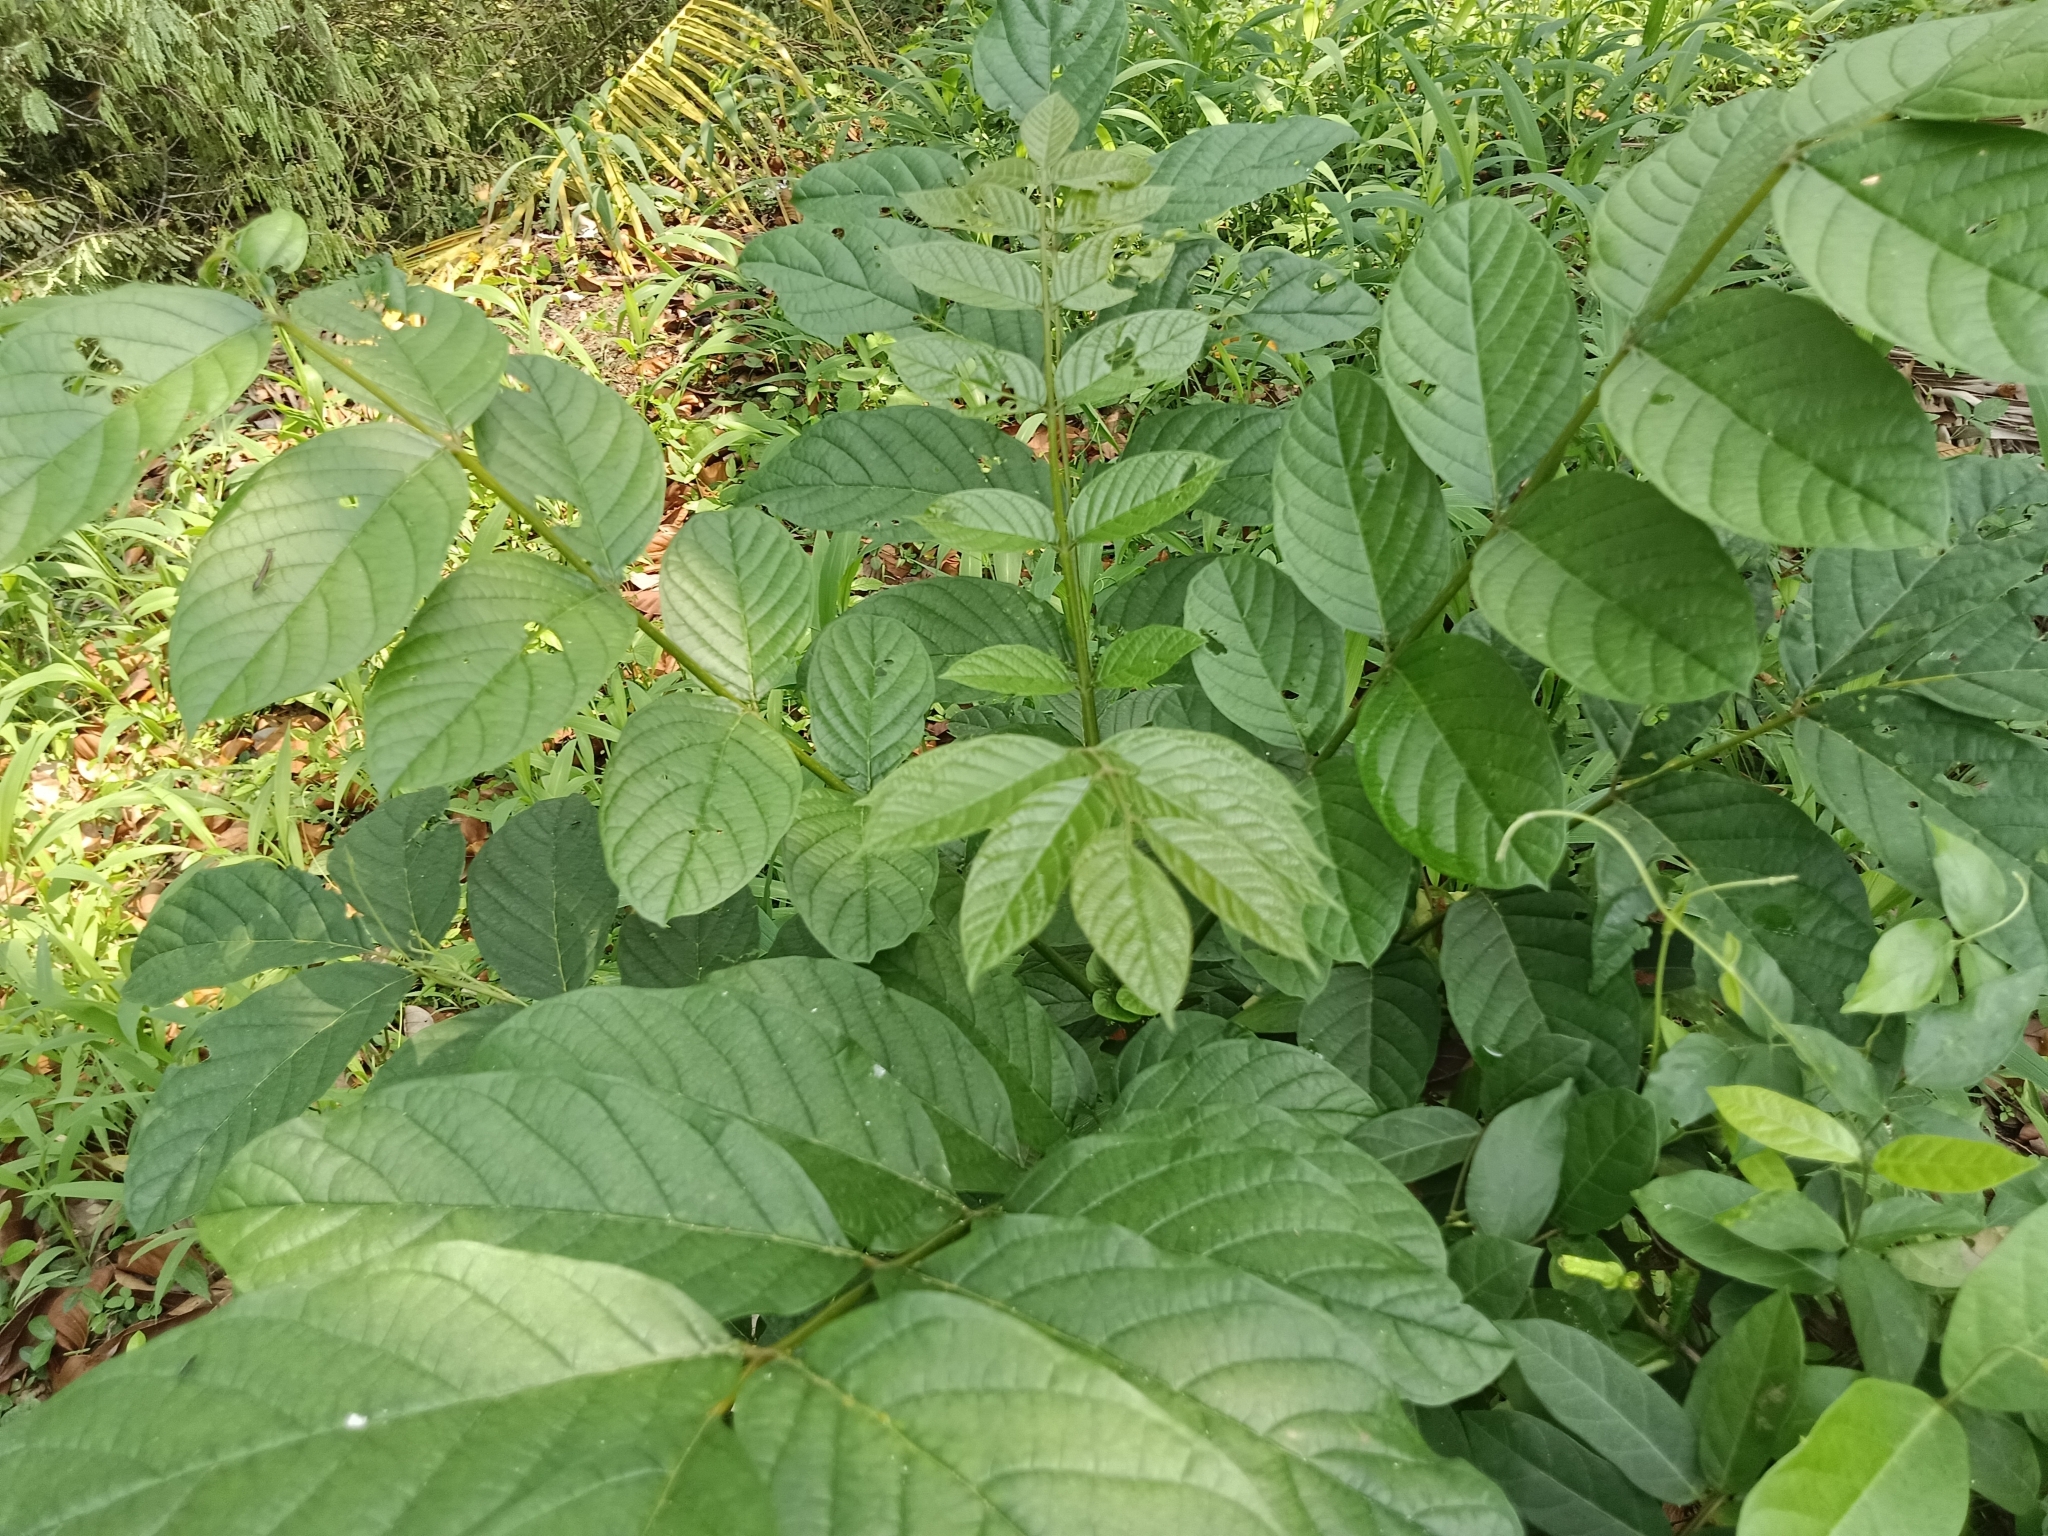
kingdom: Plantae
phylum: Tracheophyta
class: Magnoliopsida
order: Lamiales
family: Bignoniaceae
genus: Spathodea
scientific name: Spathodea campanulata
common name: African tuliptree
